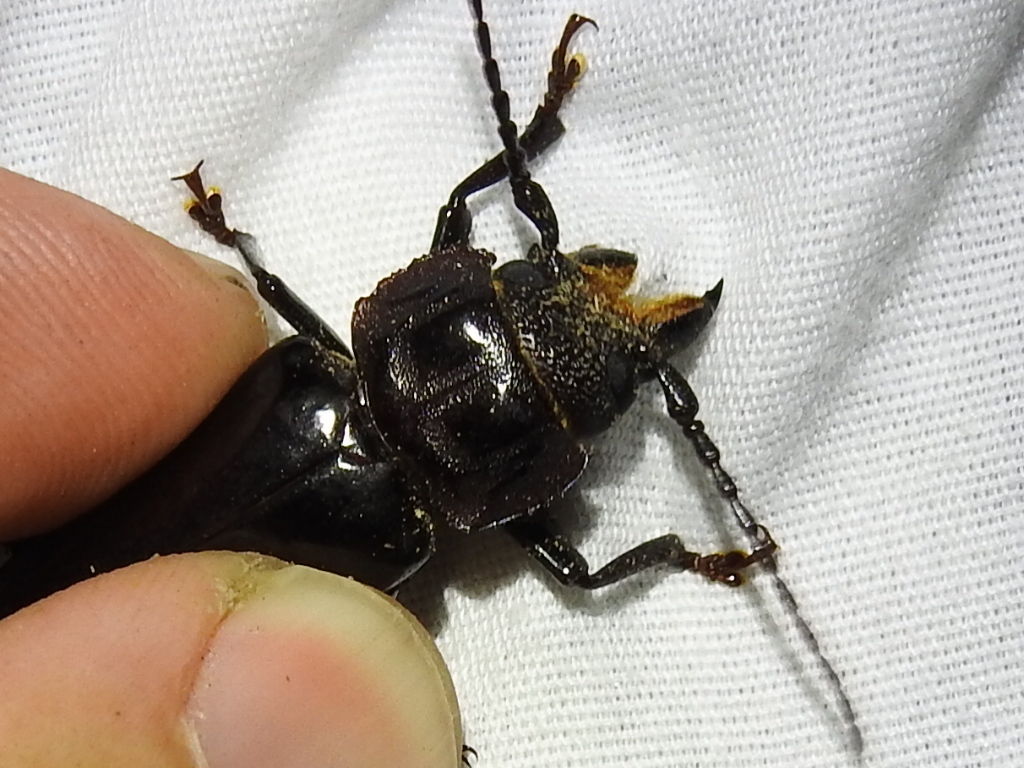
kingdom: Animalia
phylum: Arthropoda
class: Insecta
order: Coleoptera
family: Cerambycidae
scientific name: Cerambycidae
